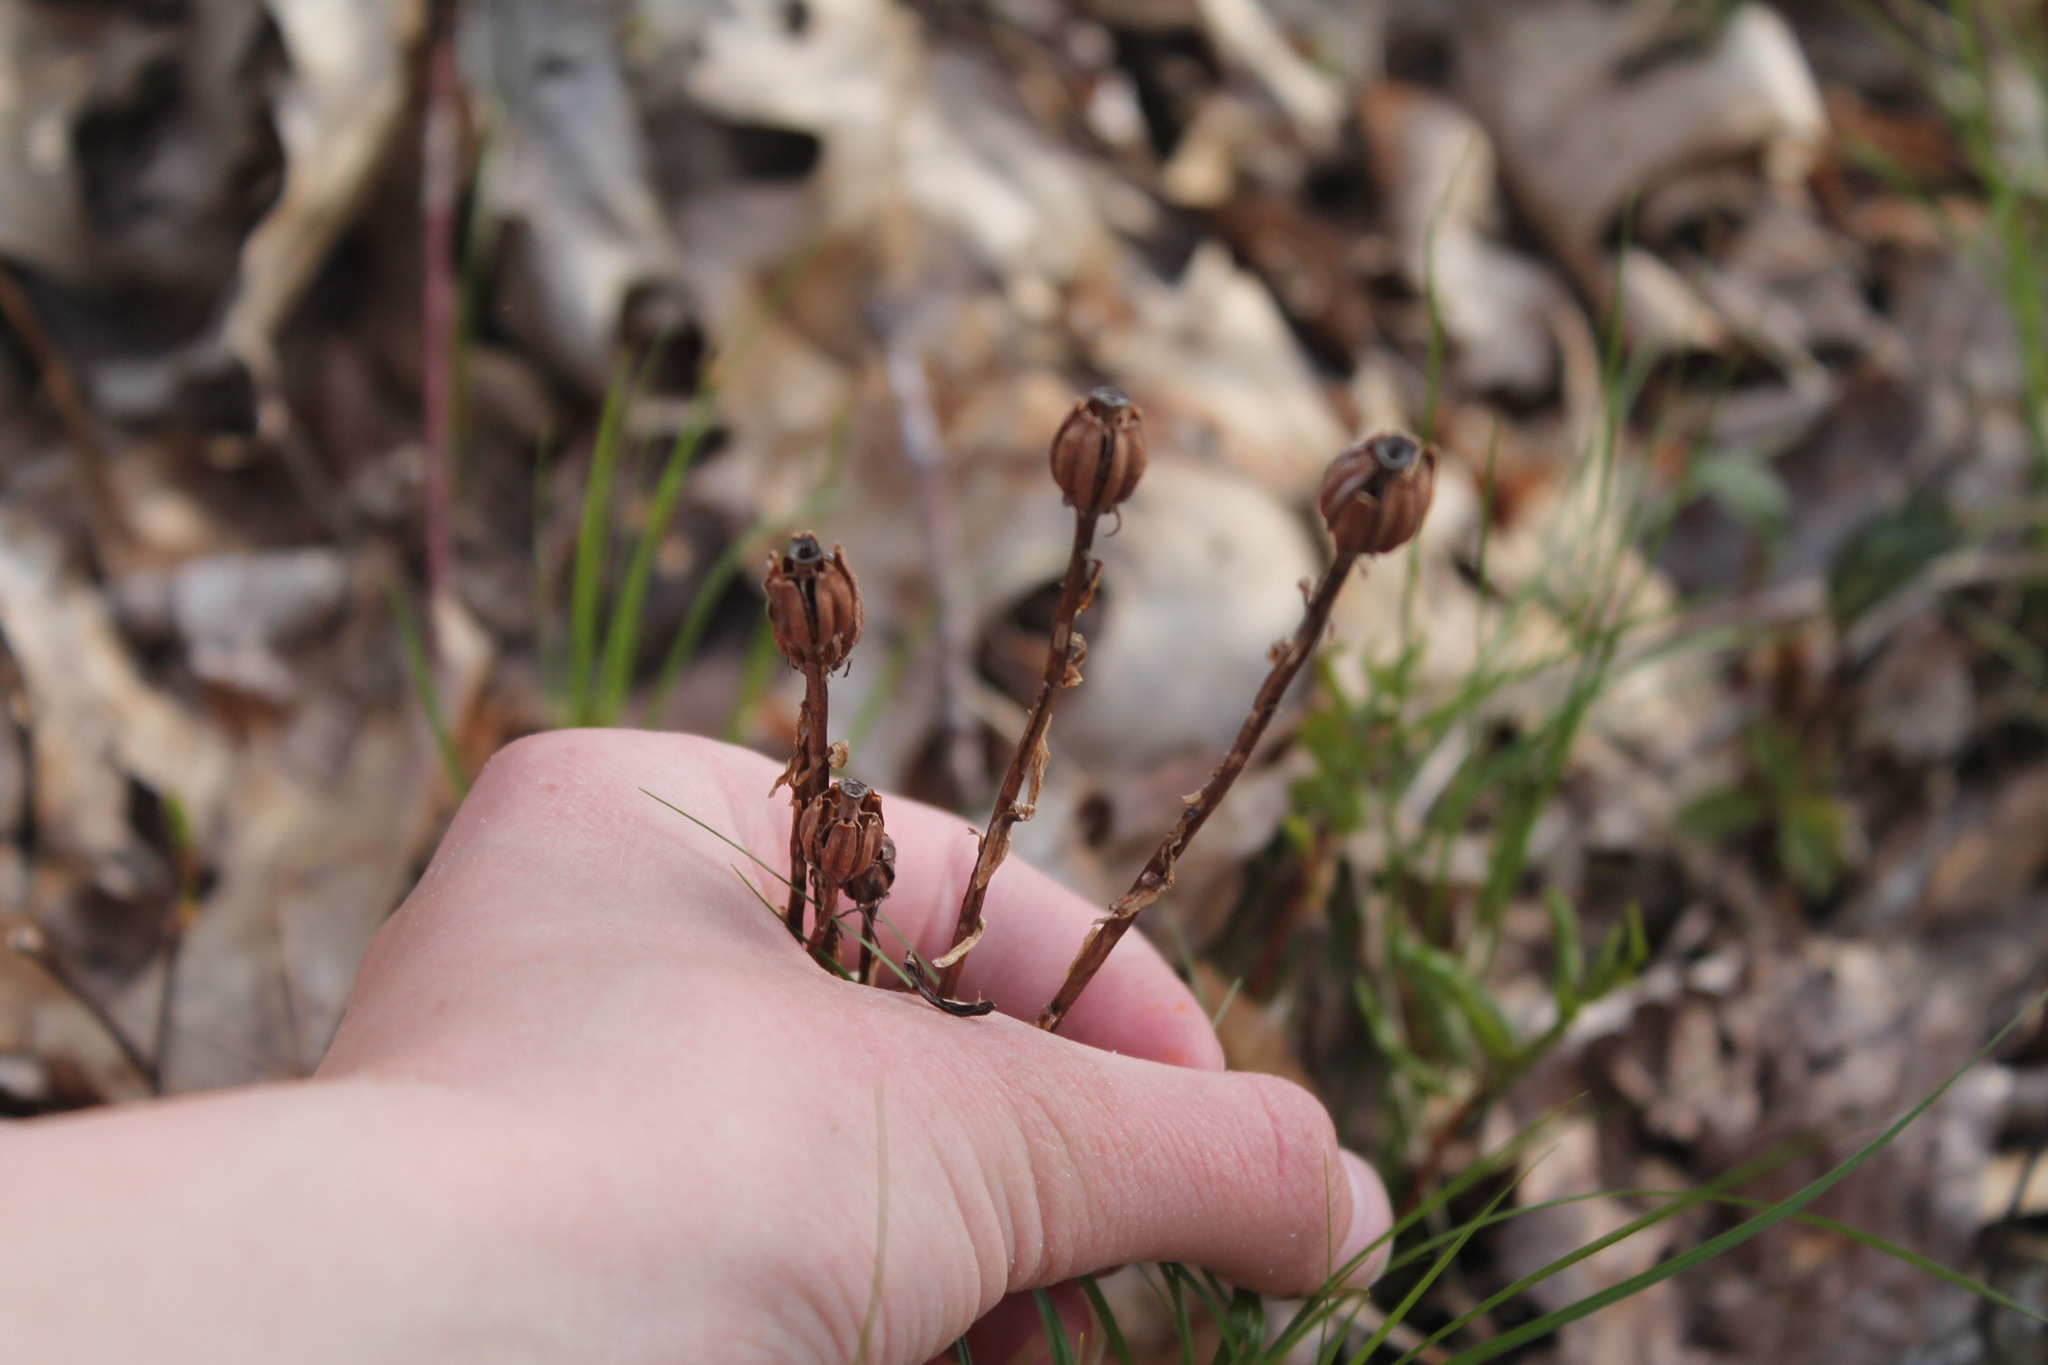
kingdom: Plantae
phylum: Tracheophyta
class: Magnoliopsida
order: Ericales
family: Ericaceae
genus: Monotropa
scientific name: Monotropa uniflora
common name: Convulsion root
